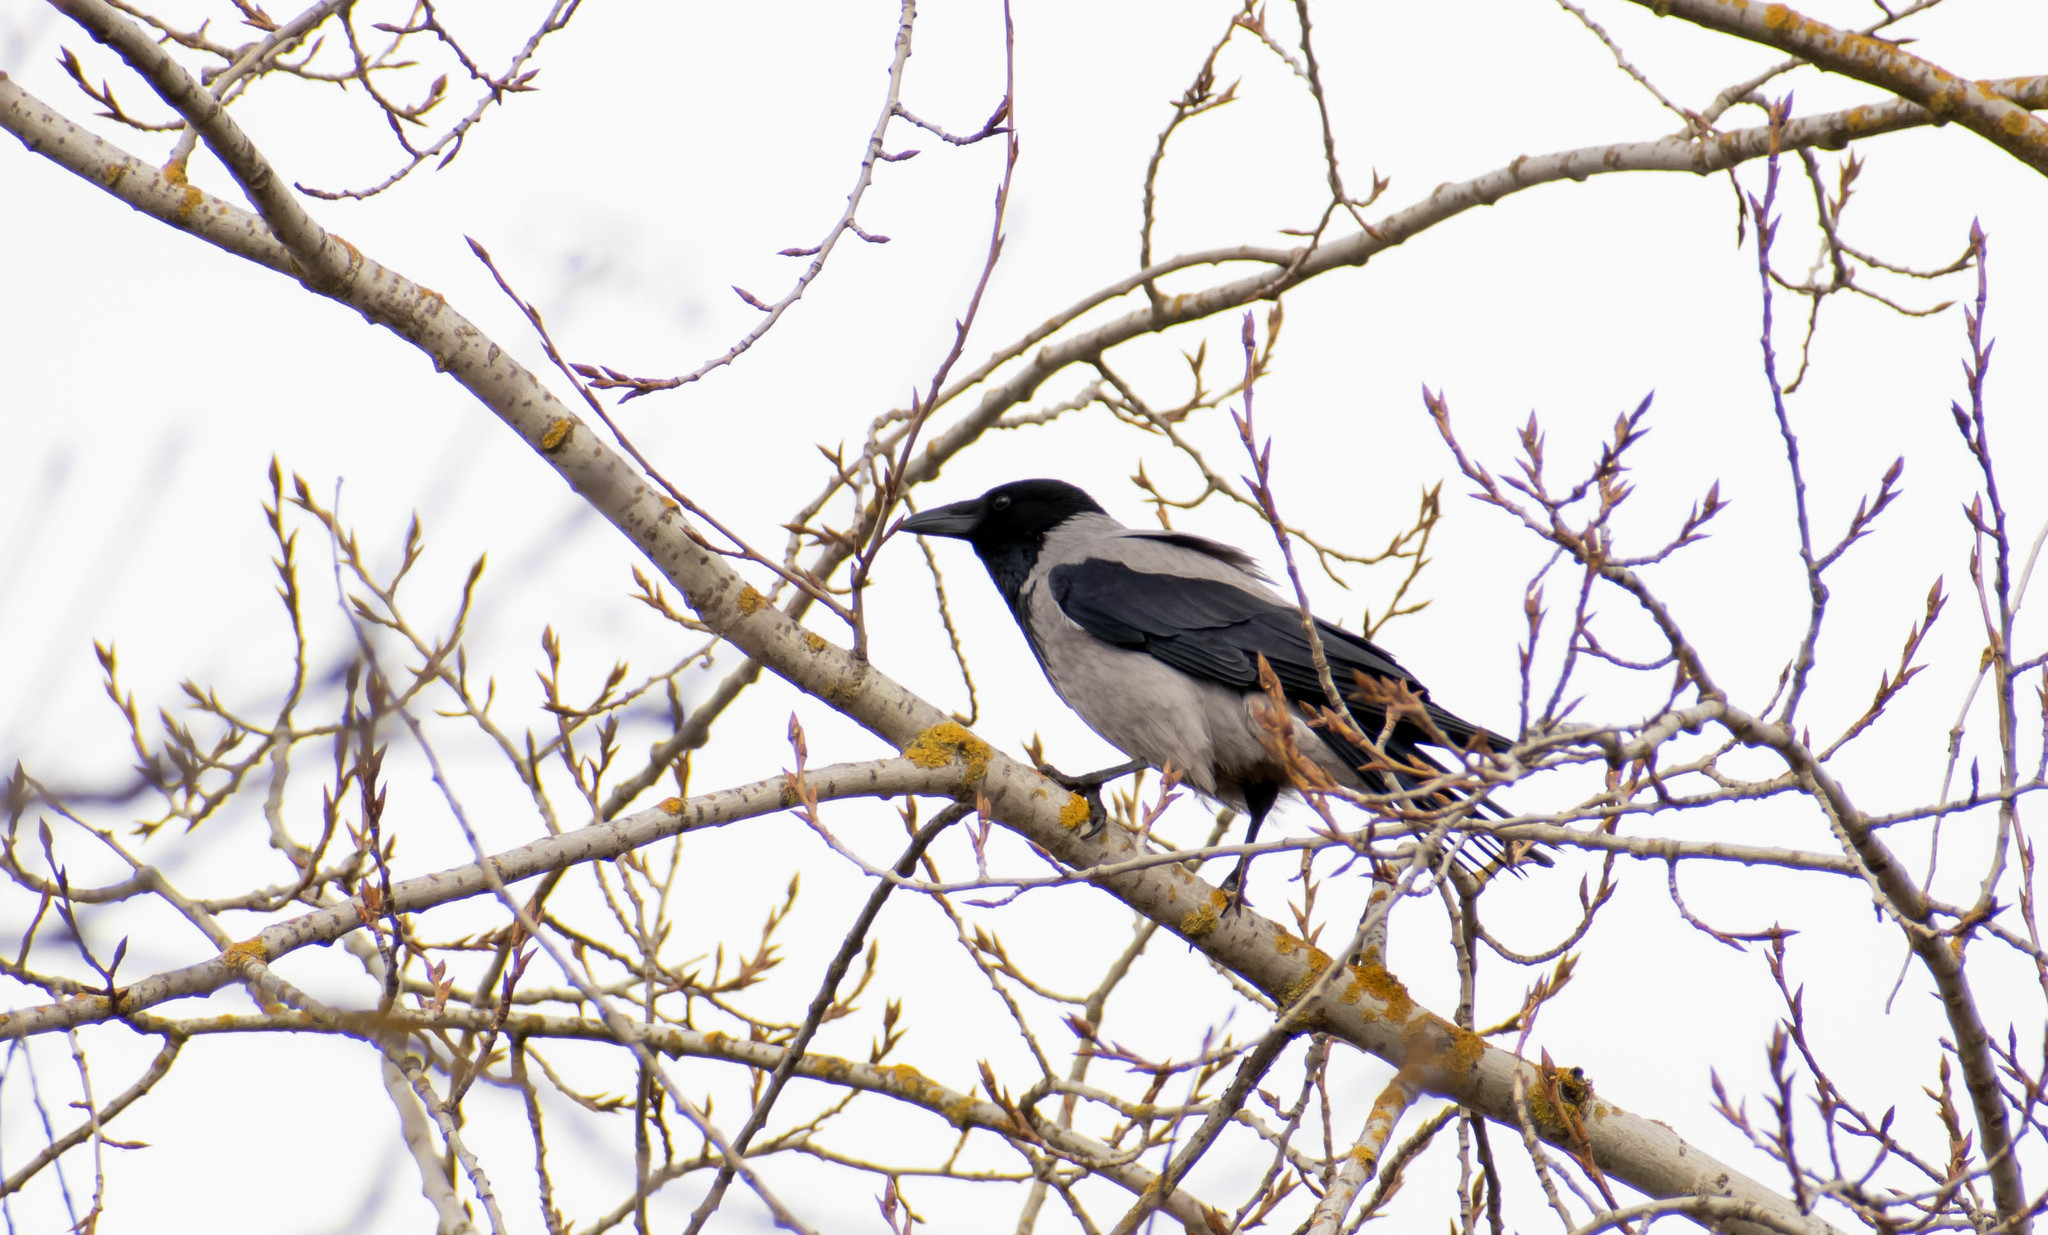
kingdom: Animalia
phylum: Chordata
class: Aves
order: Passeriformes
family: Corvidae
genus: Corvus
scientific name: Corvus cornix
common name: Hooded crow
